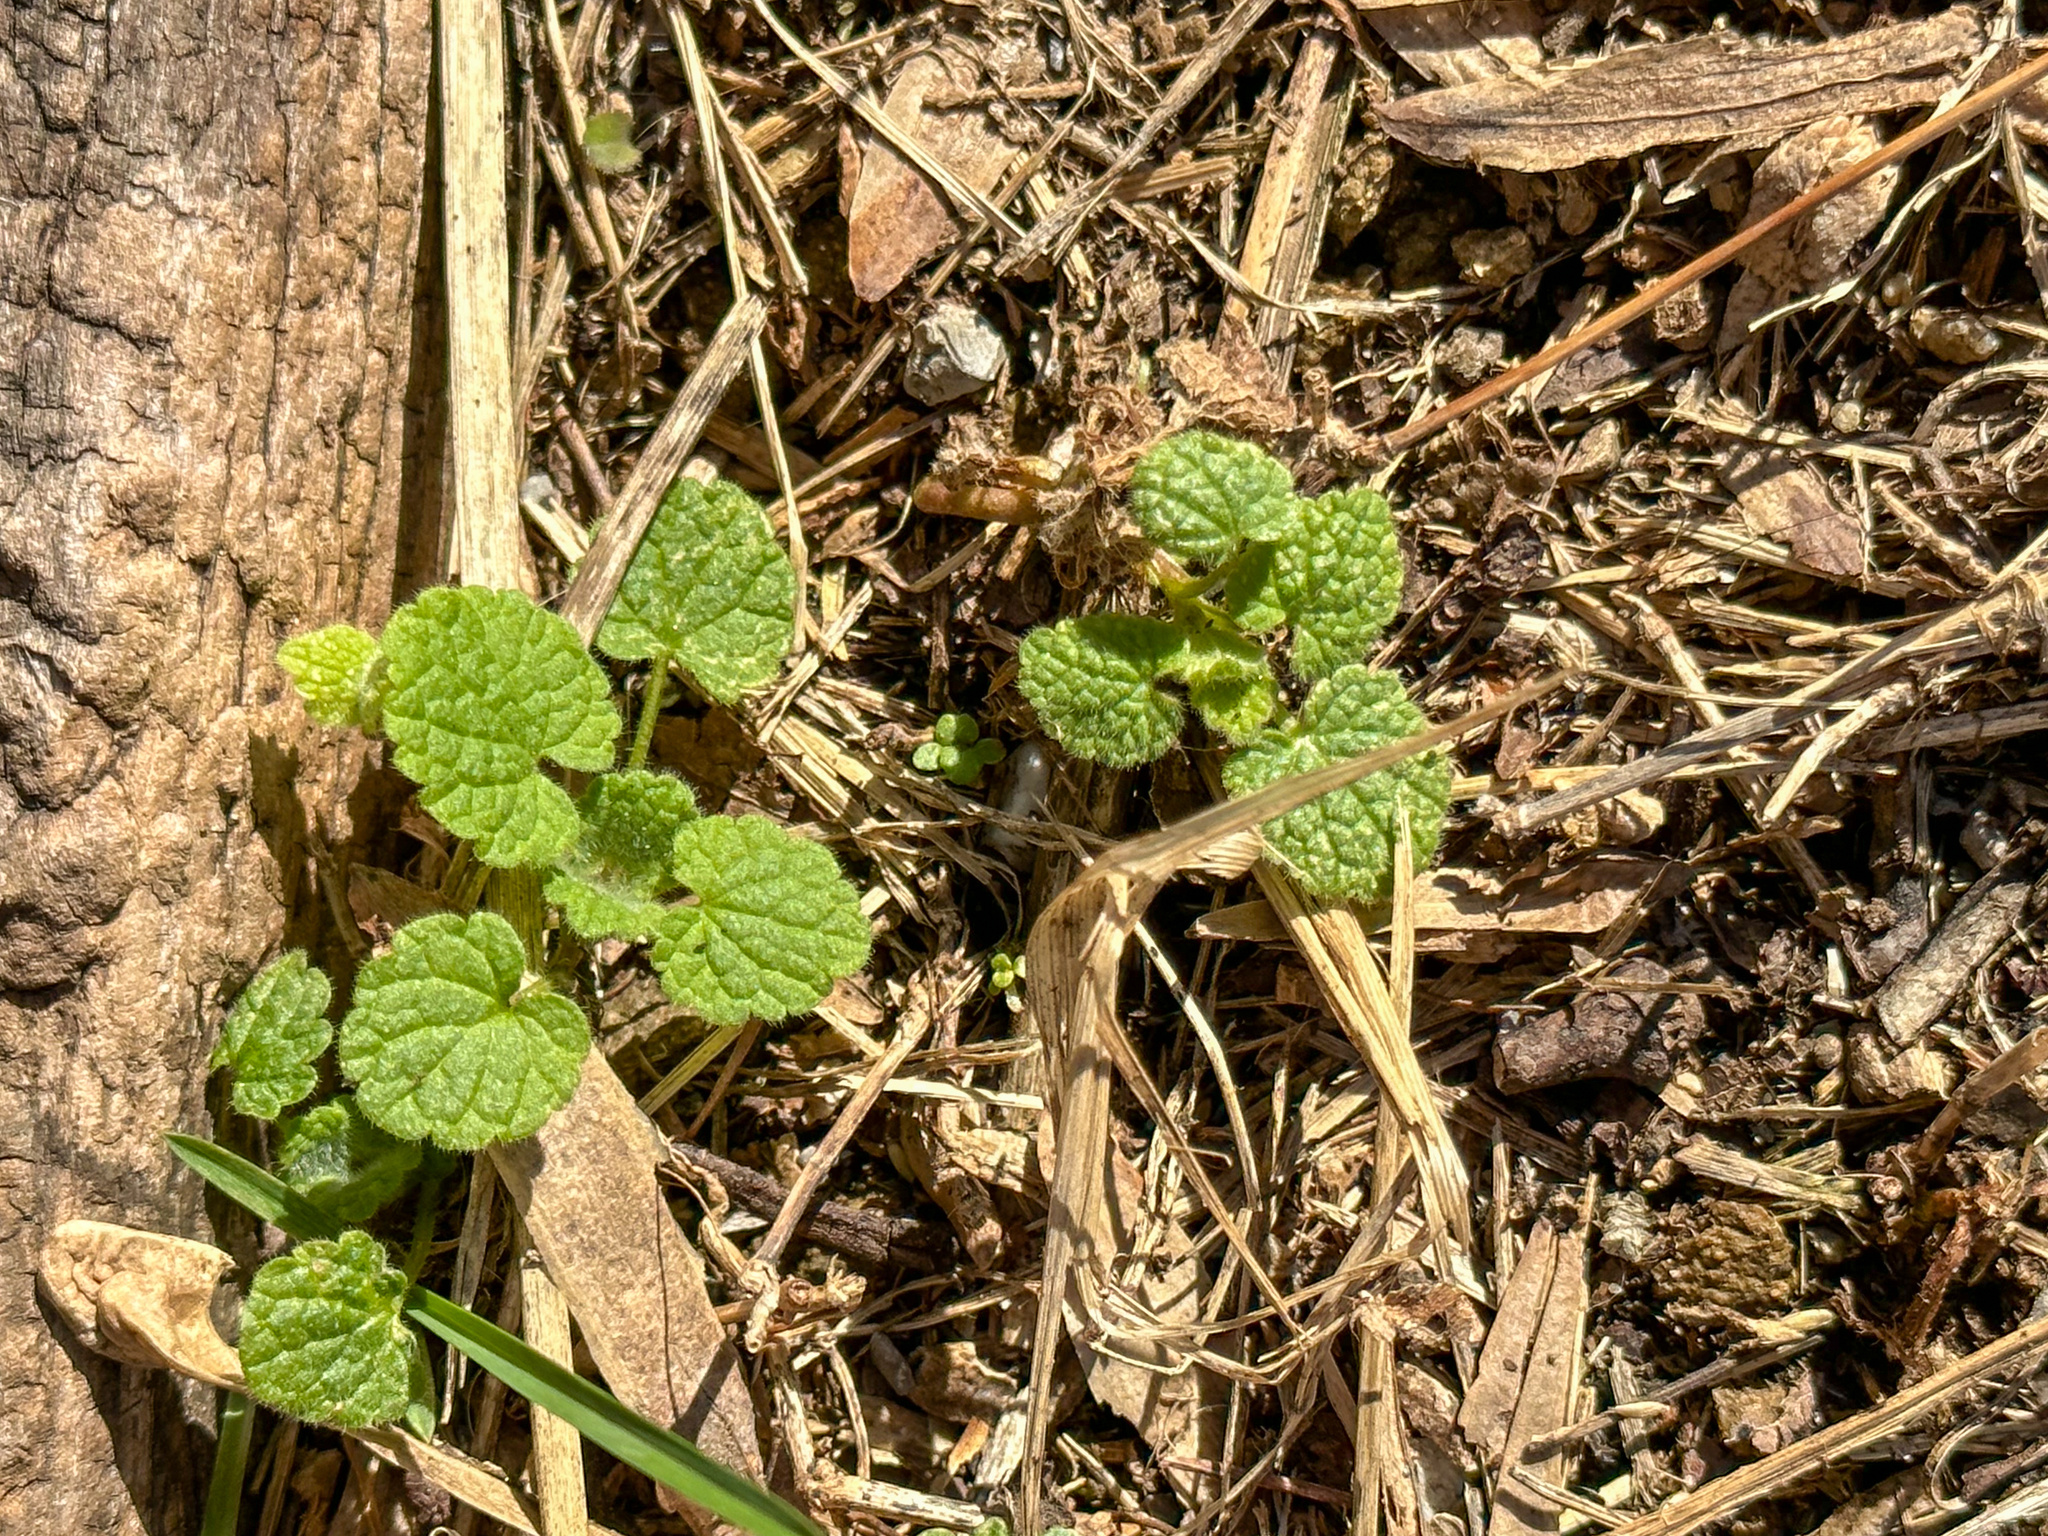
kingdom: Plantae
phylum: Tracheophyta
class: Magnoliopsida
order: Lamiales
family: Lamiaceae
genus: Lamium
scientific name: Lamium purpureum
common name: Red dead-nettle
